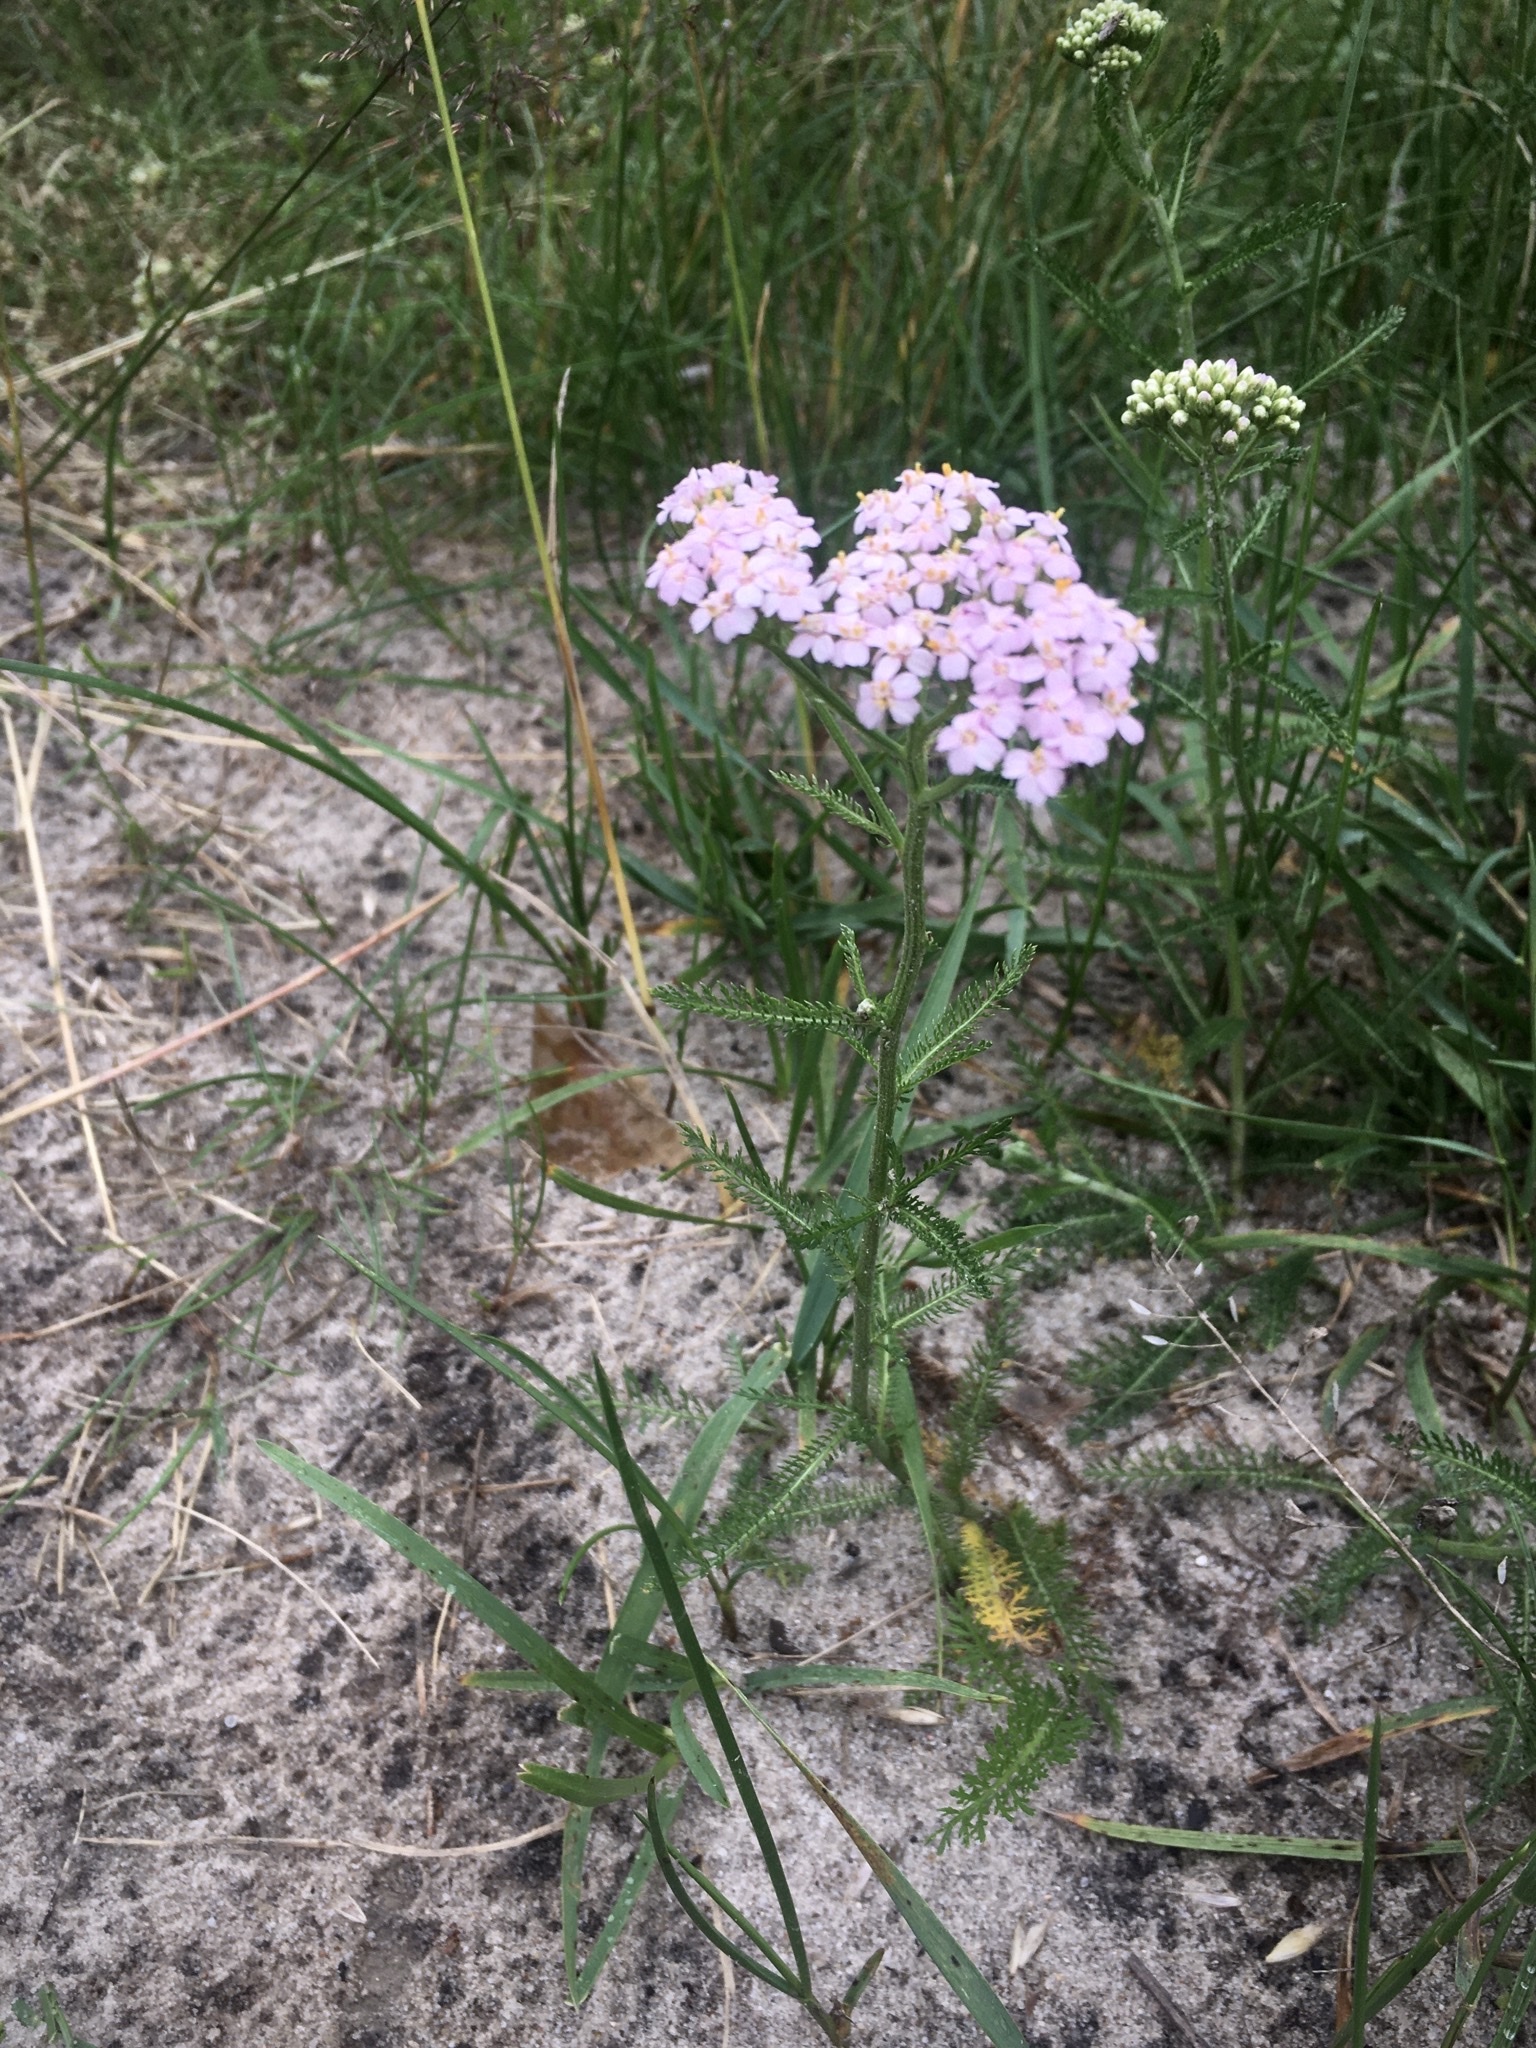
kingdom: Plantae
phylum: Tracheophyta
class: Magnoliopsida
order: Asterales
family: Asteraceae
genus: Achillea
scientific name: Achillea millefolium
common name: Yarrow
